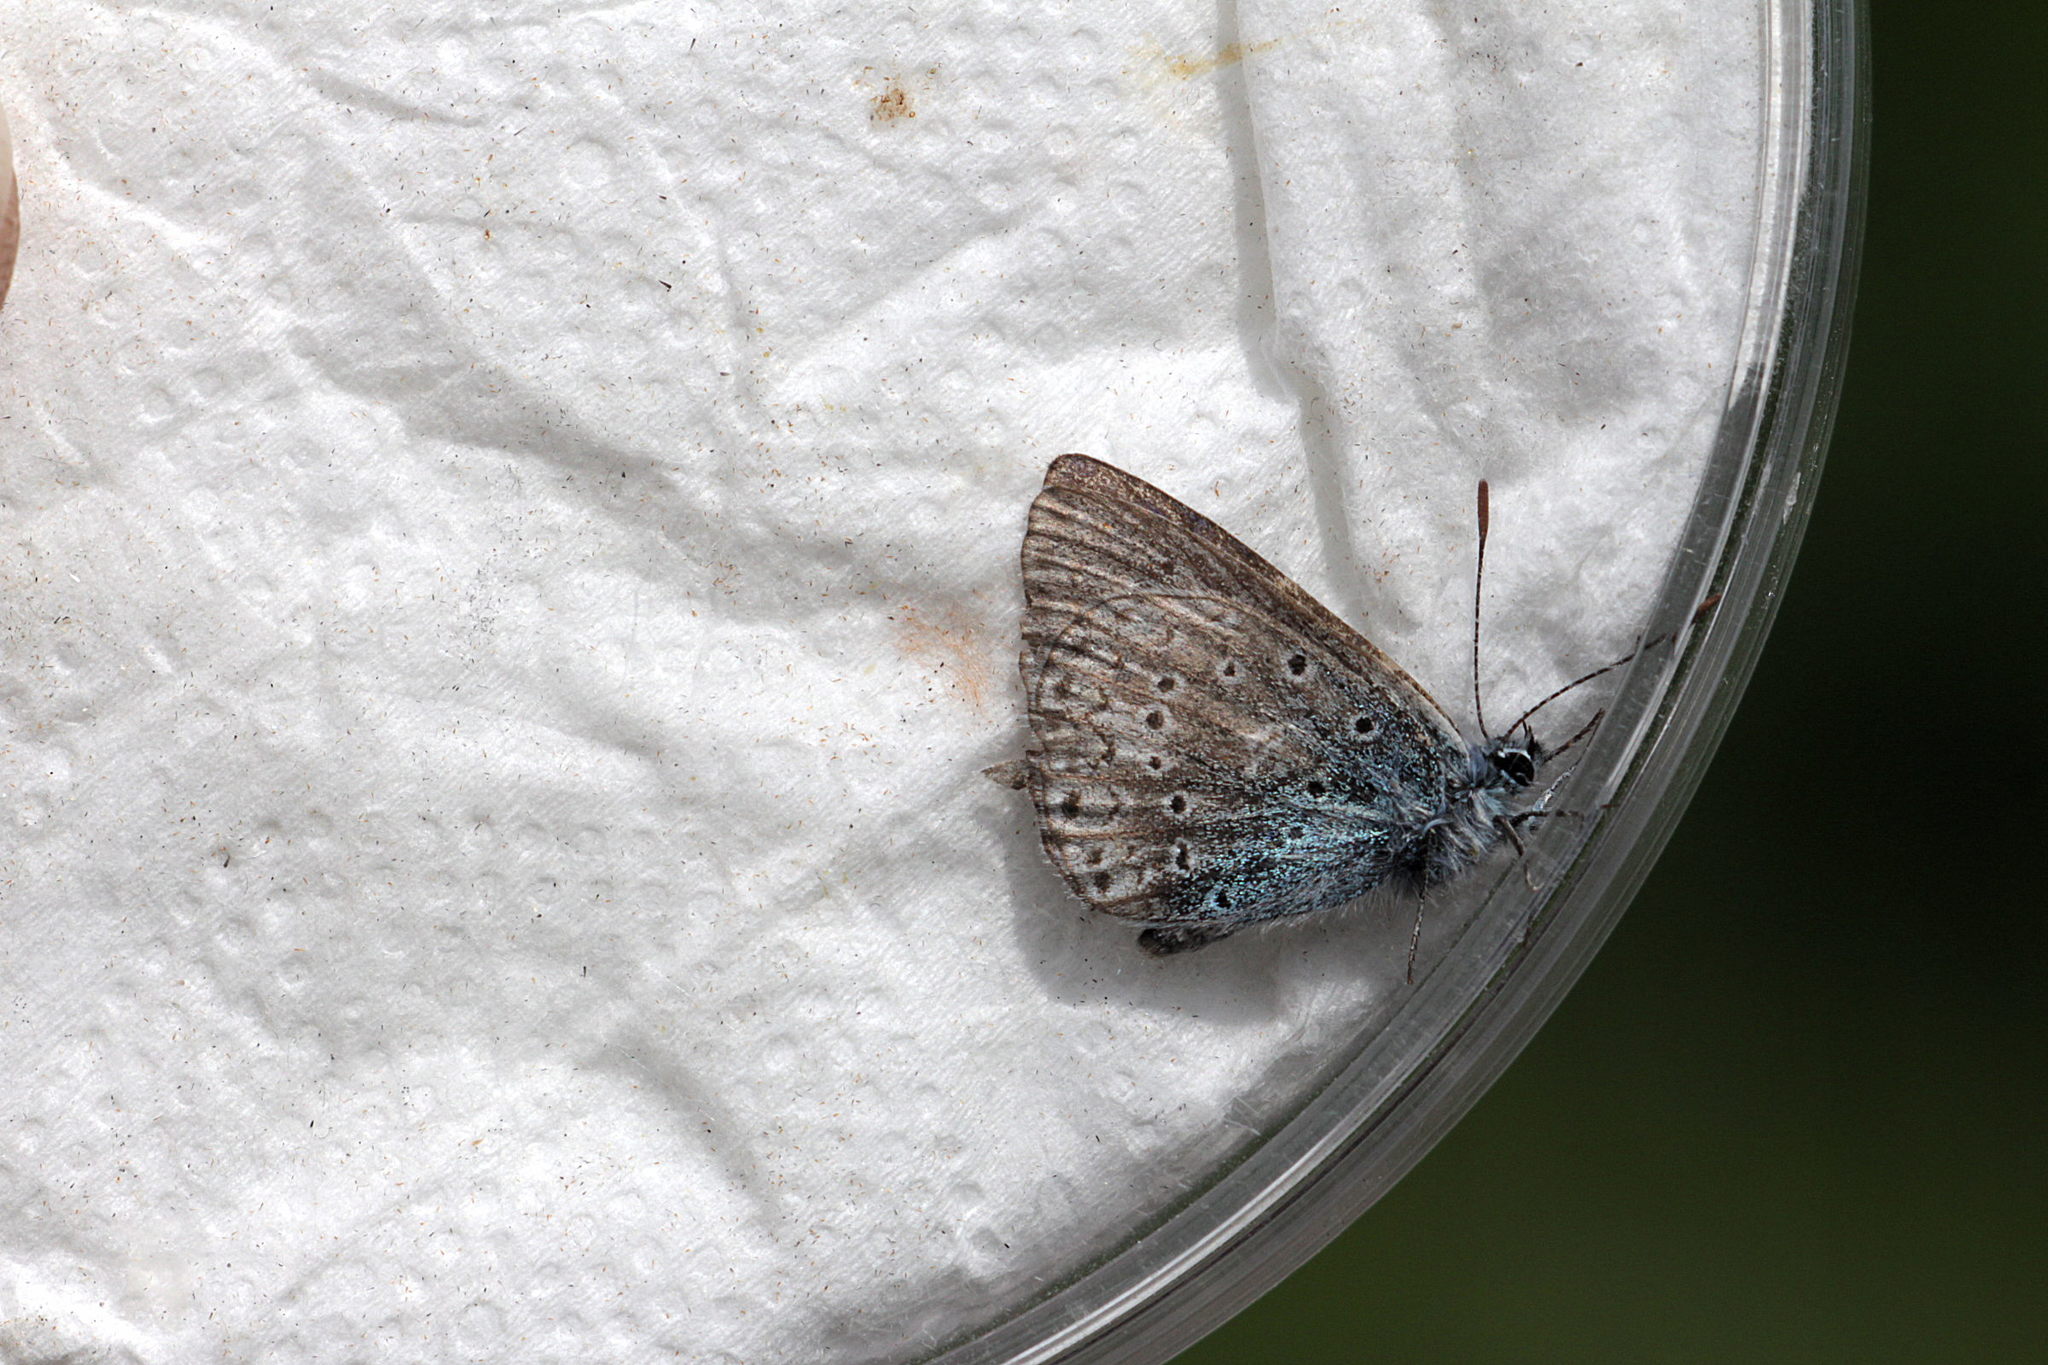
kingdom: Animalia
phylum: Arthropoda
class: Insecta
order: Lepidoptera
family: Lycaenidae
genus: Polyommatus
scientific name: Polyommatus icarus
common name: Common blue
